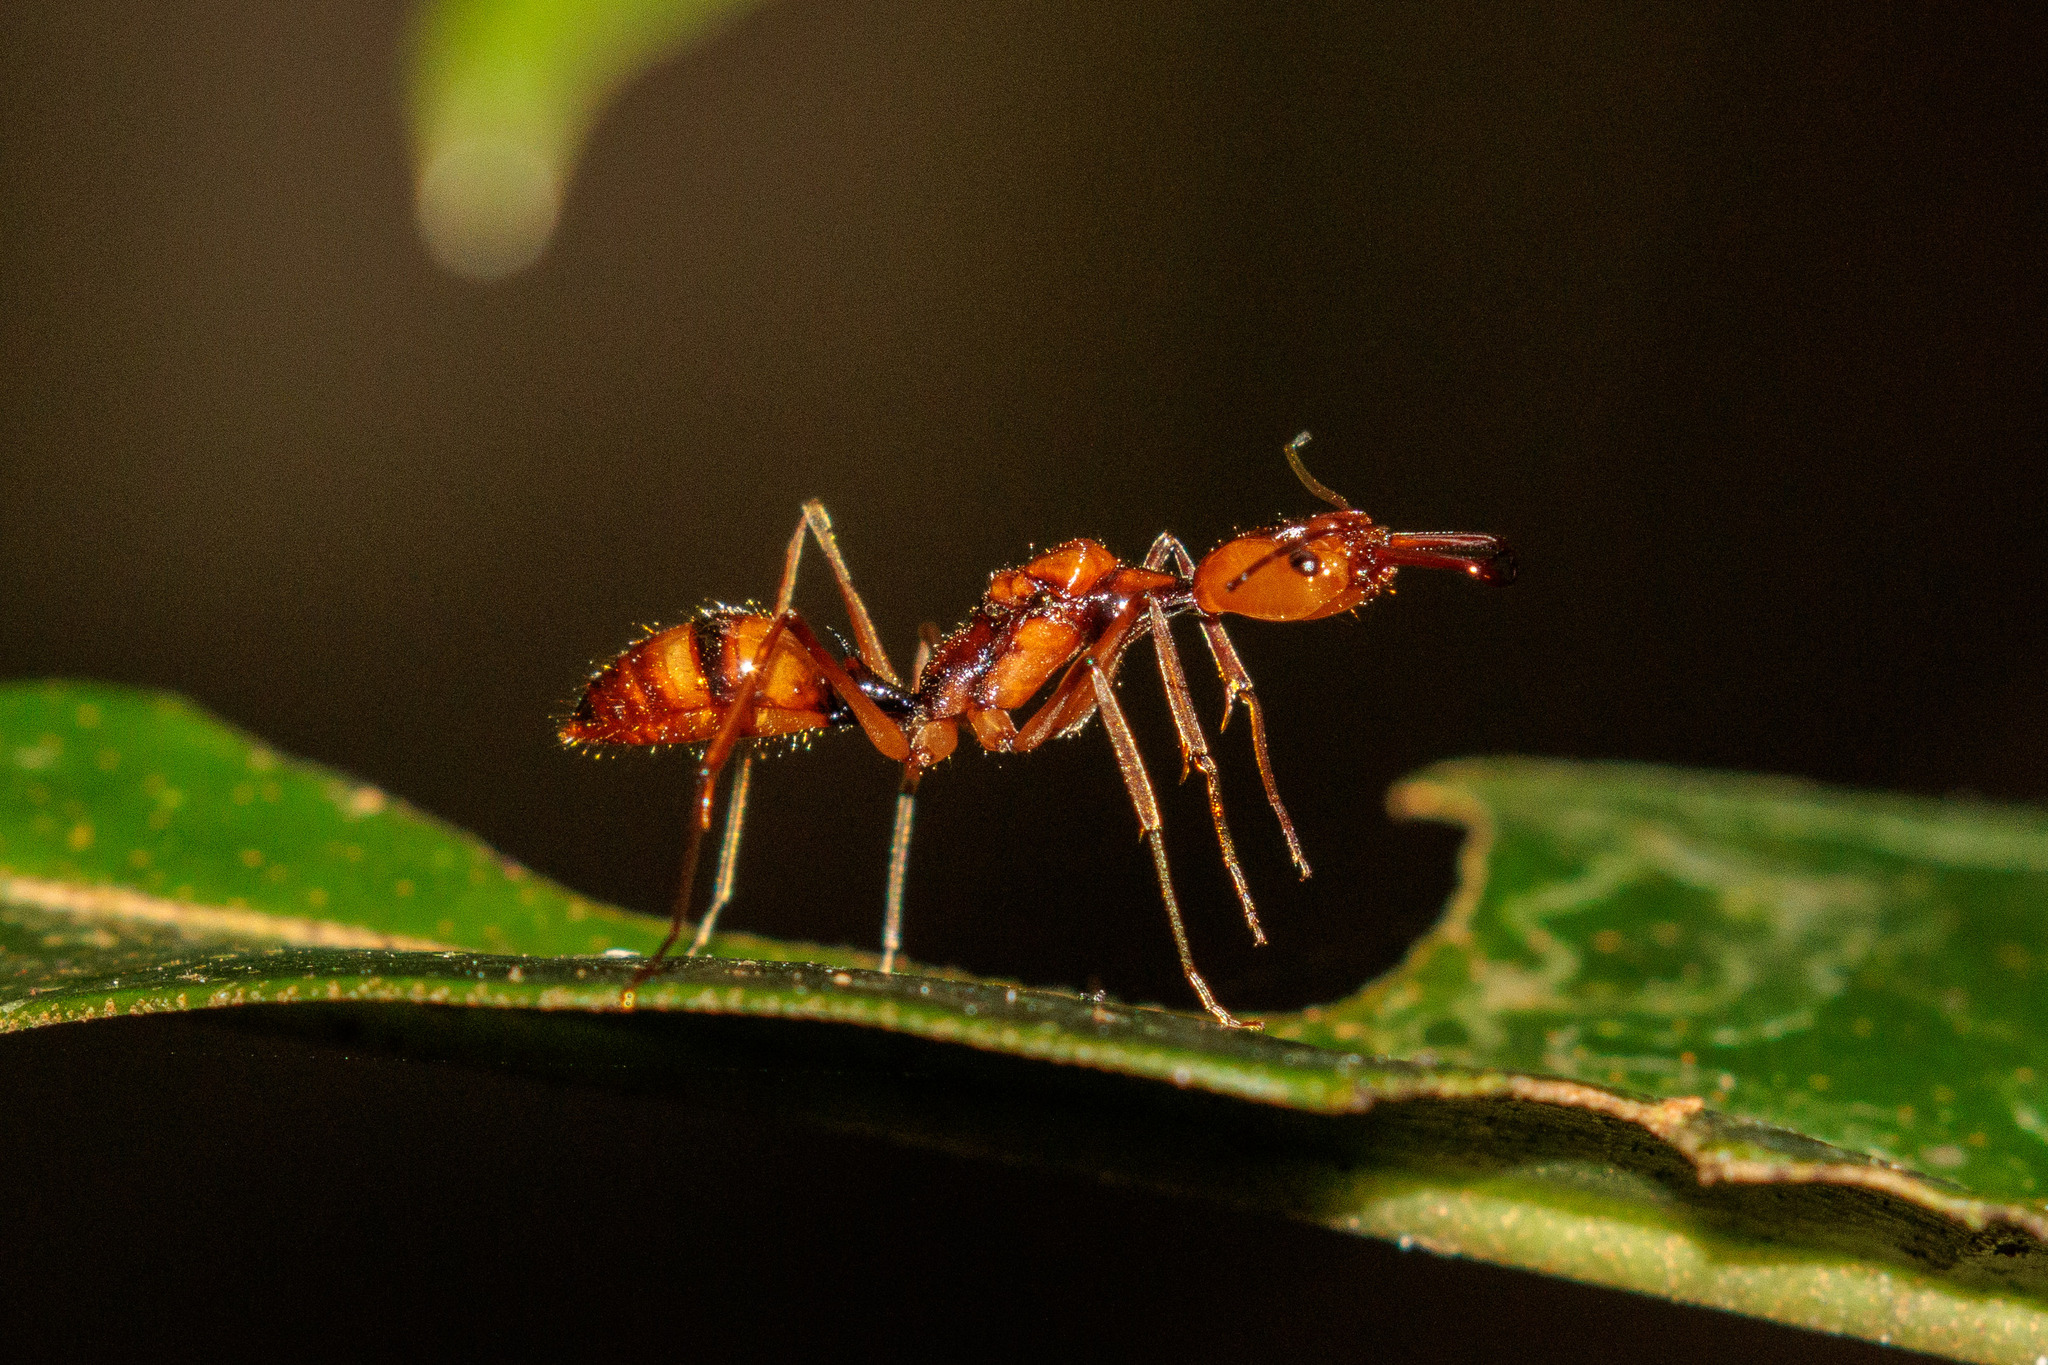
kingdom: Animalia
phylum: Arthropoda
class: Insecta
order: Hymenoptera
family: Formicidae
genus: Odontomachus
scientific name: Odontomachus hastatus
